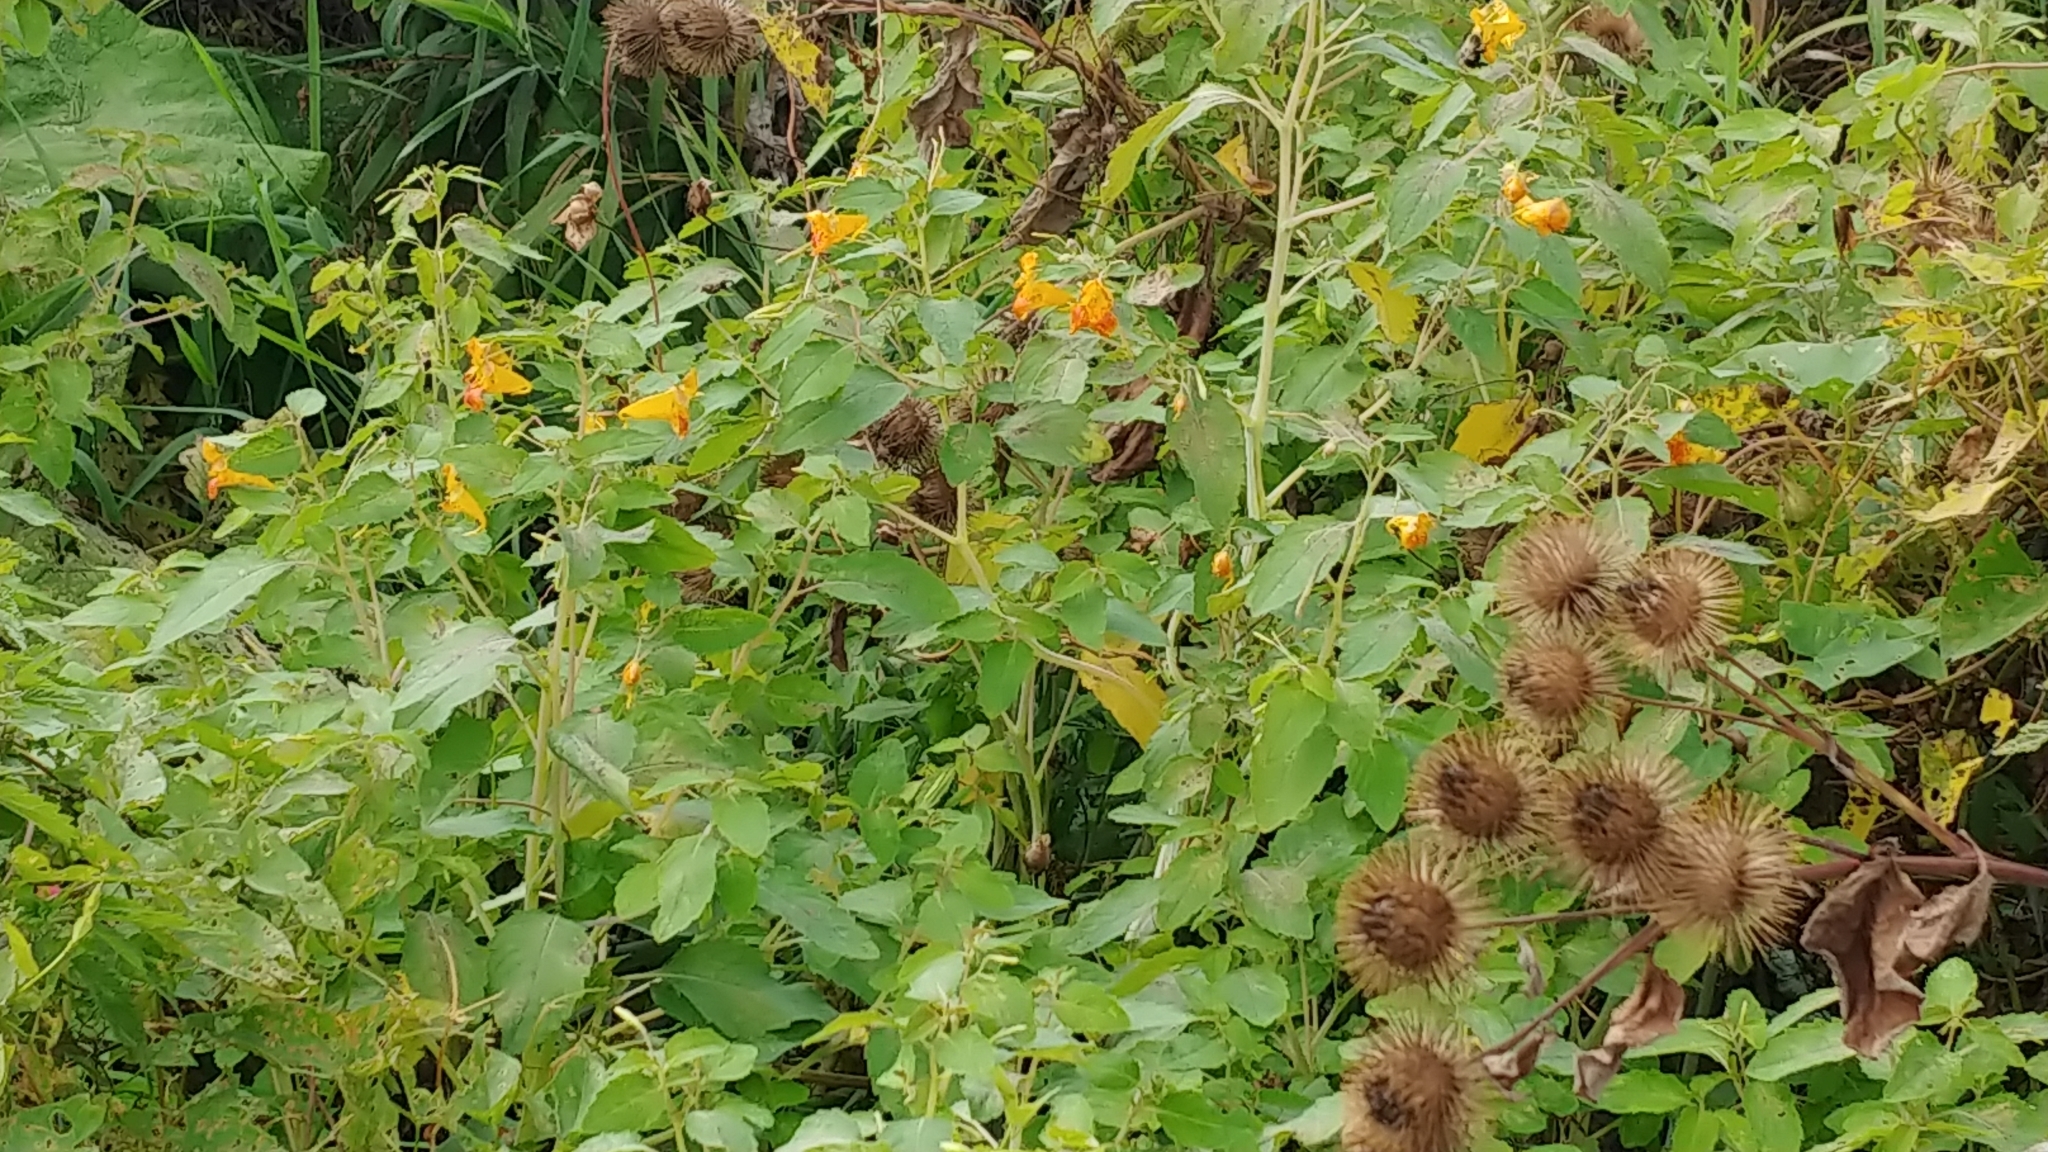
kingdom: Plantae
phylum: Tracheophyta
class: Magnoliopsida
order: Ericales
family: Balsaminaceae
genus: Impatiens
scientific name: Impatiens capensis
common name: Orange balsam
